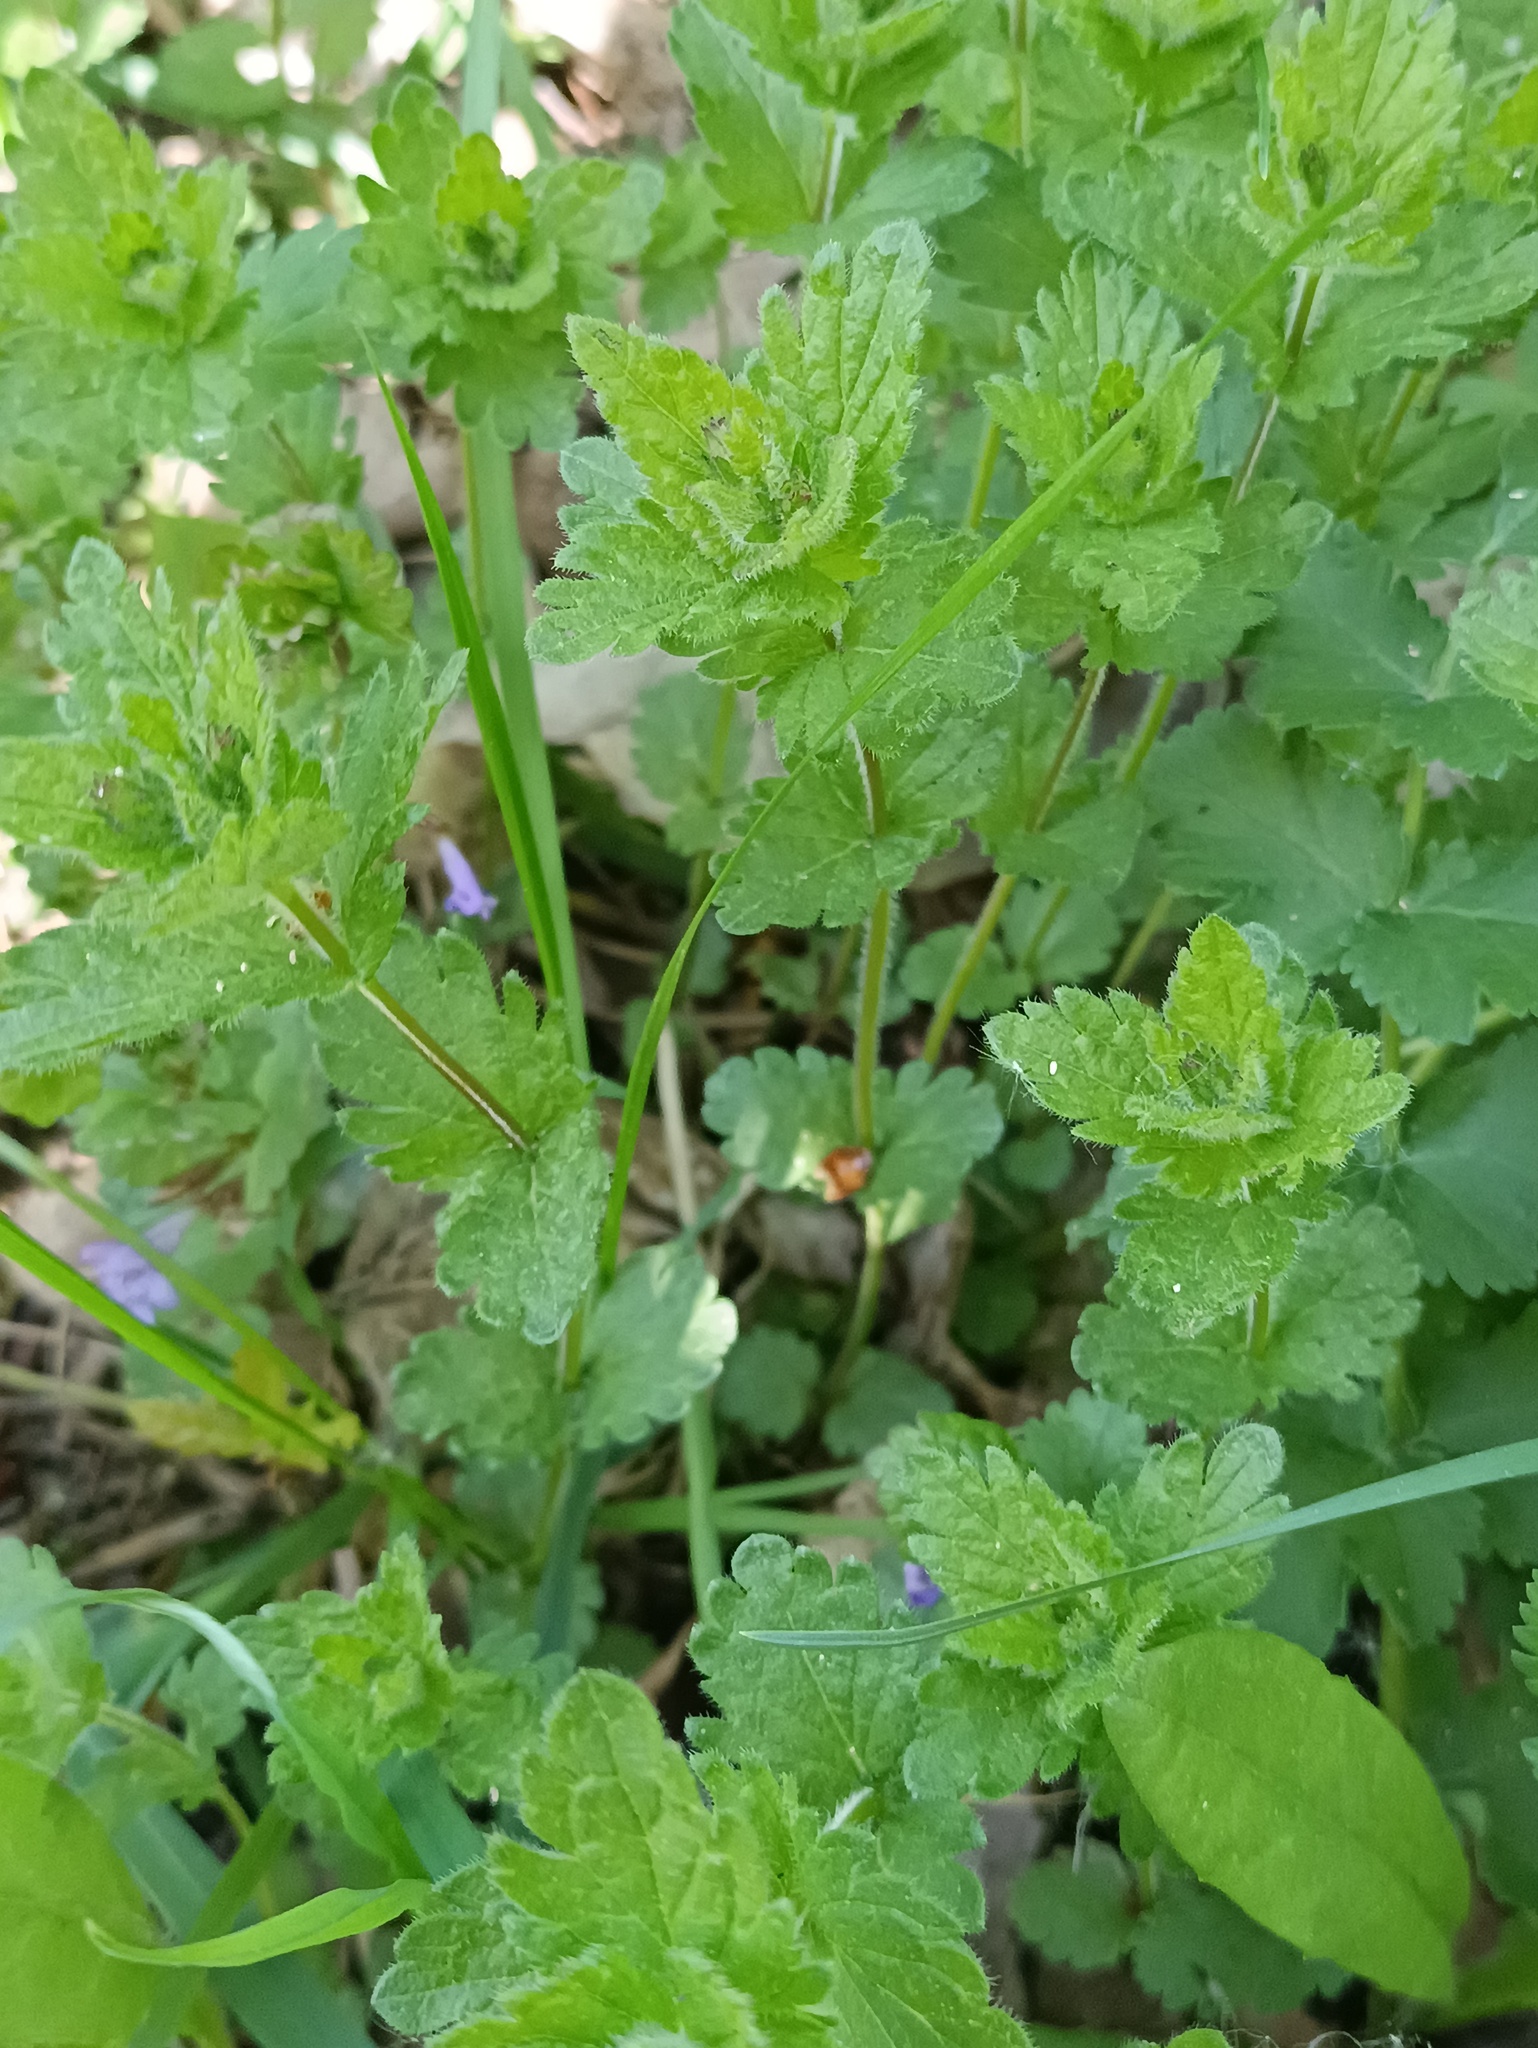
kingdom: Plantae
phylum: Tracheophyta
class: Magnoliopsida
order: Lamiales
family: Plantaginaceae
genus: Veronica
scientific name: Veronica chamaedrys
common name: Germander speedwell
